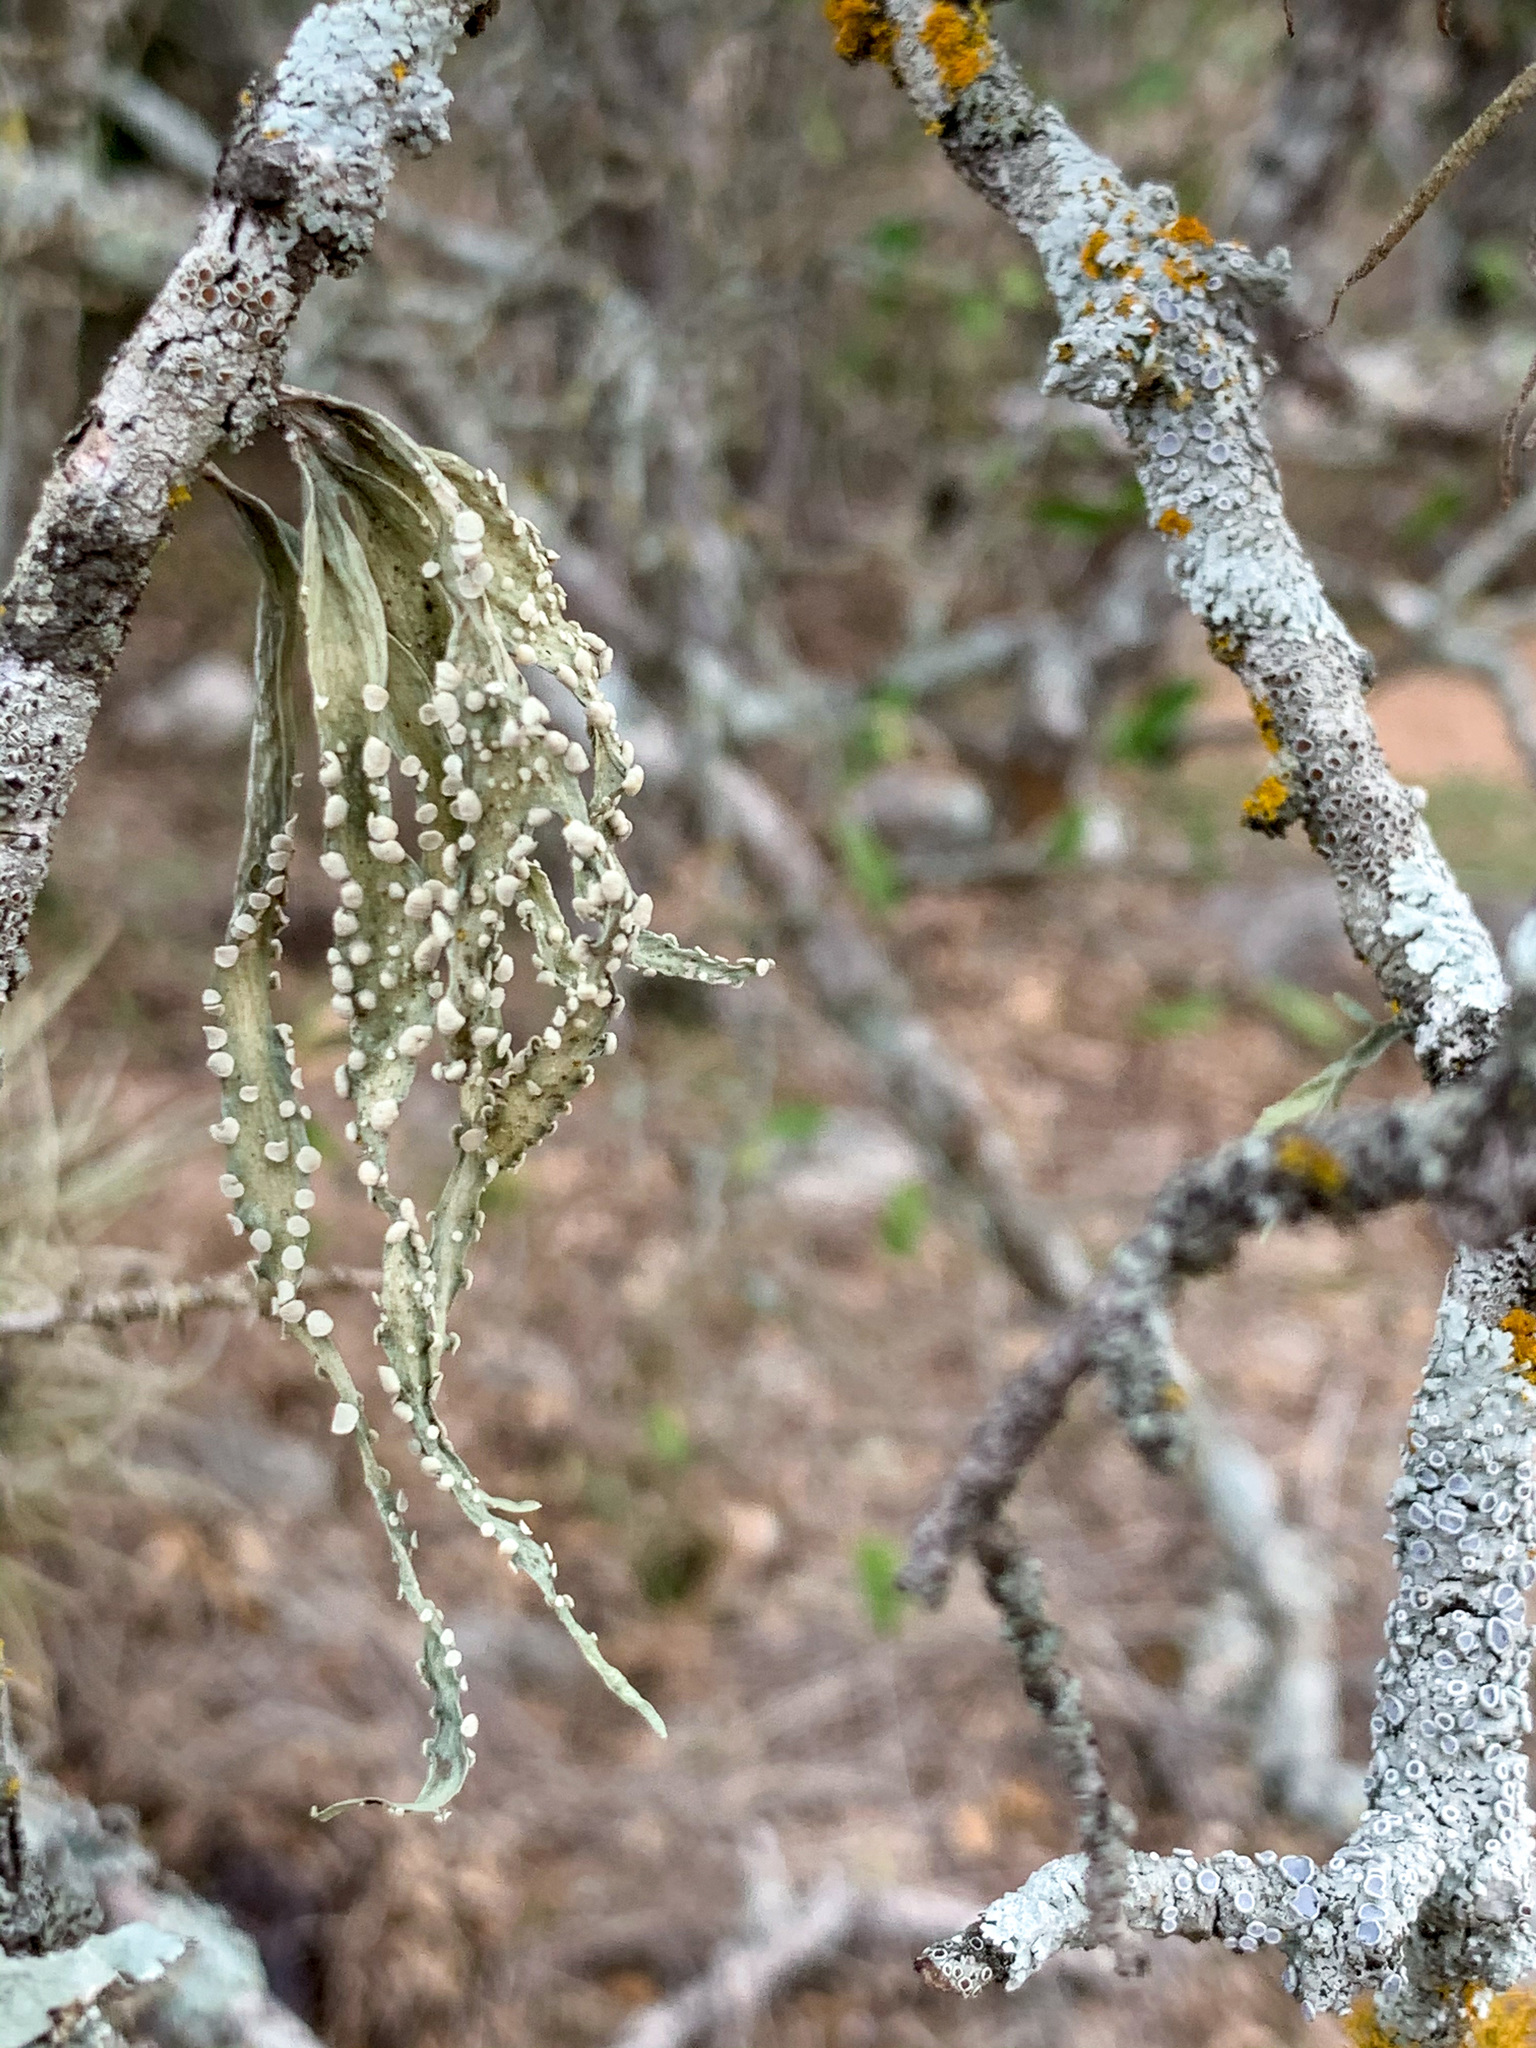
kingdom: Fungi
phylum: Ascomycota
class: Lecanoromycetes
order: Lecanorales
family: Ramalinaceae
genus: Ramalina
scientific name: Ramalina celastri
